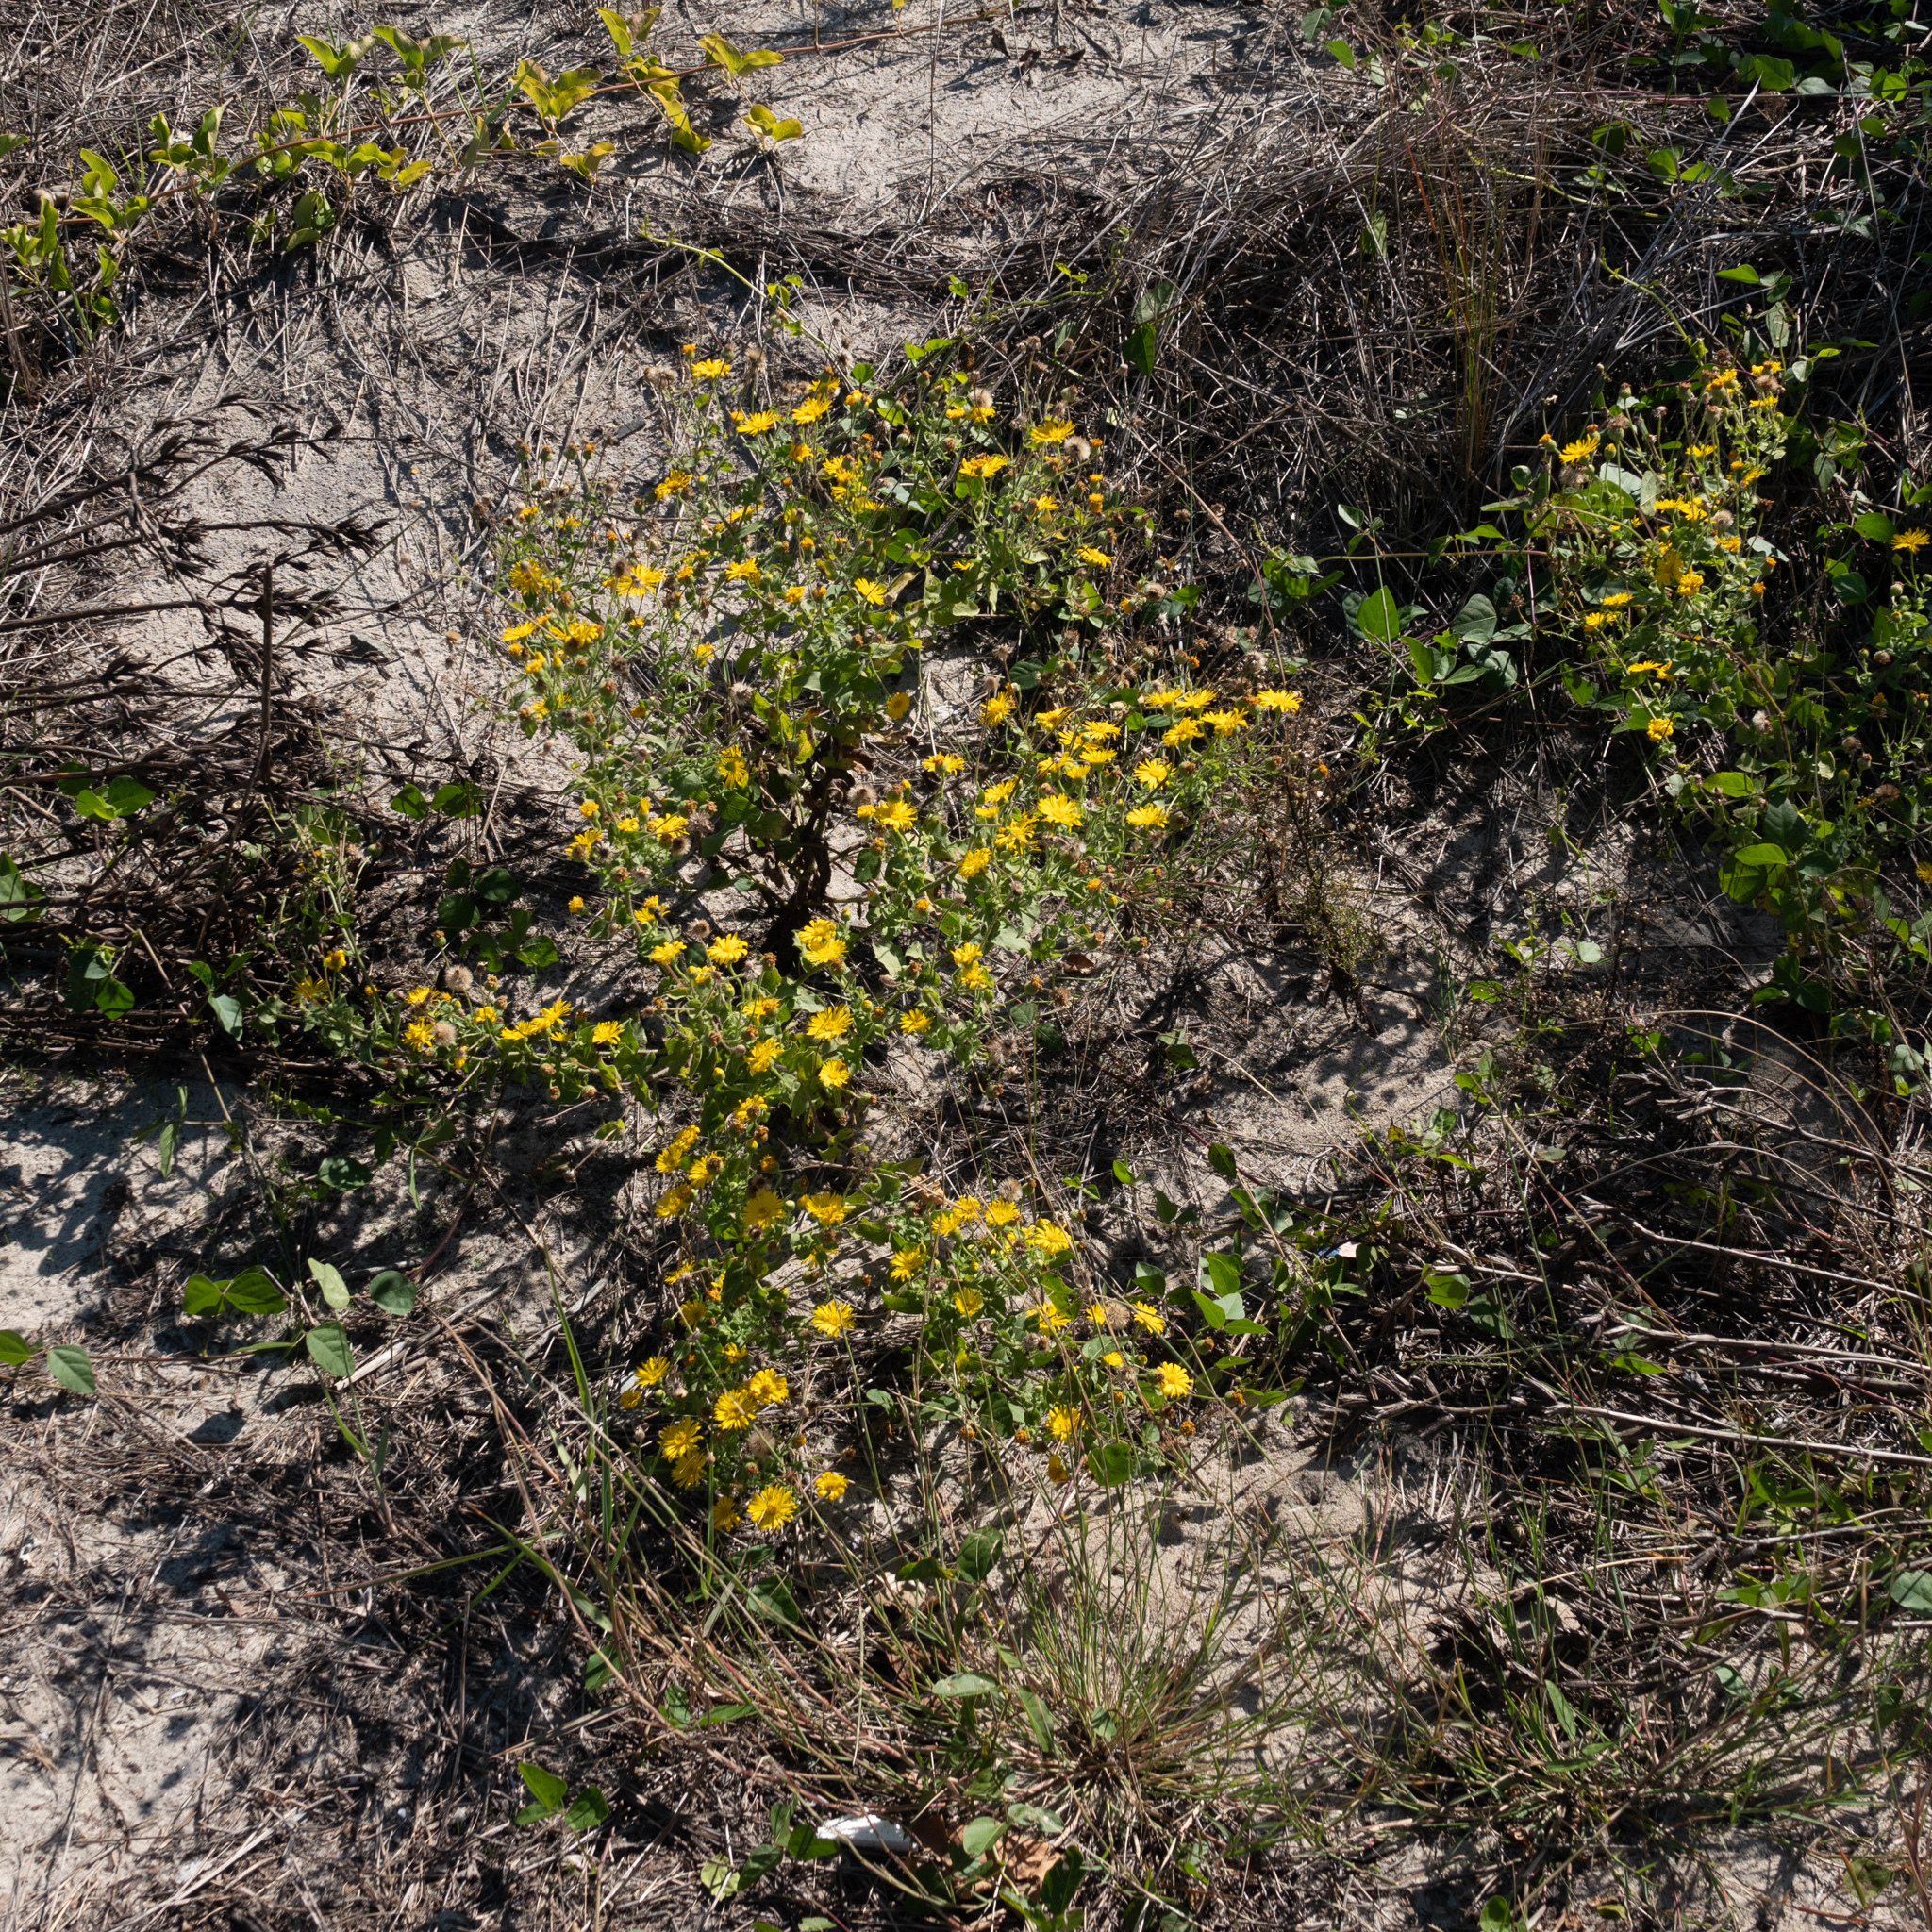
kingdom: Plantae
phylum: Tracheophyta
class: Magnoliopsida
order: Asterales
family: Asteraceae
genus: Heterotheca
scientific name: Heterotheca subaxillaris
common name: Camphorweed
